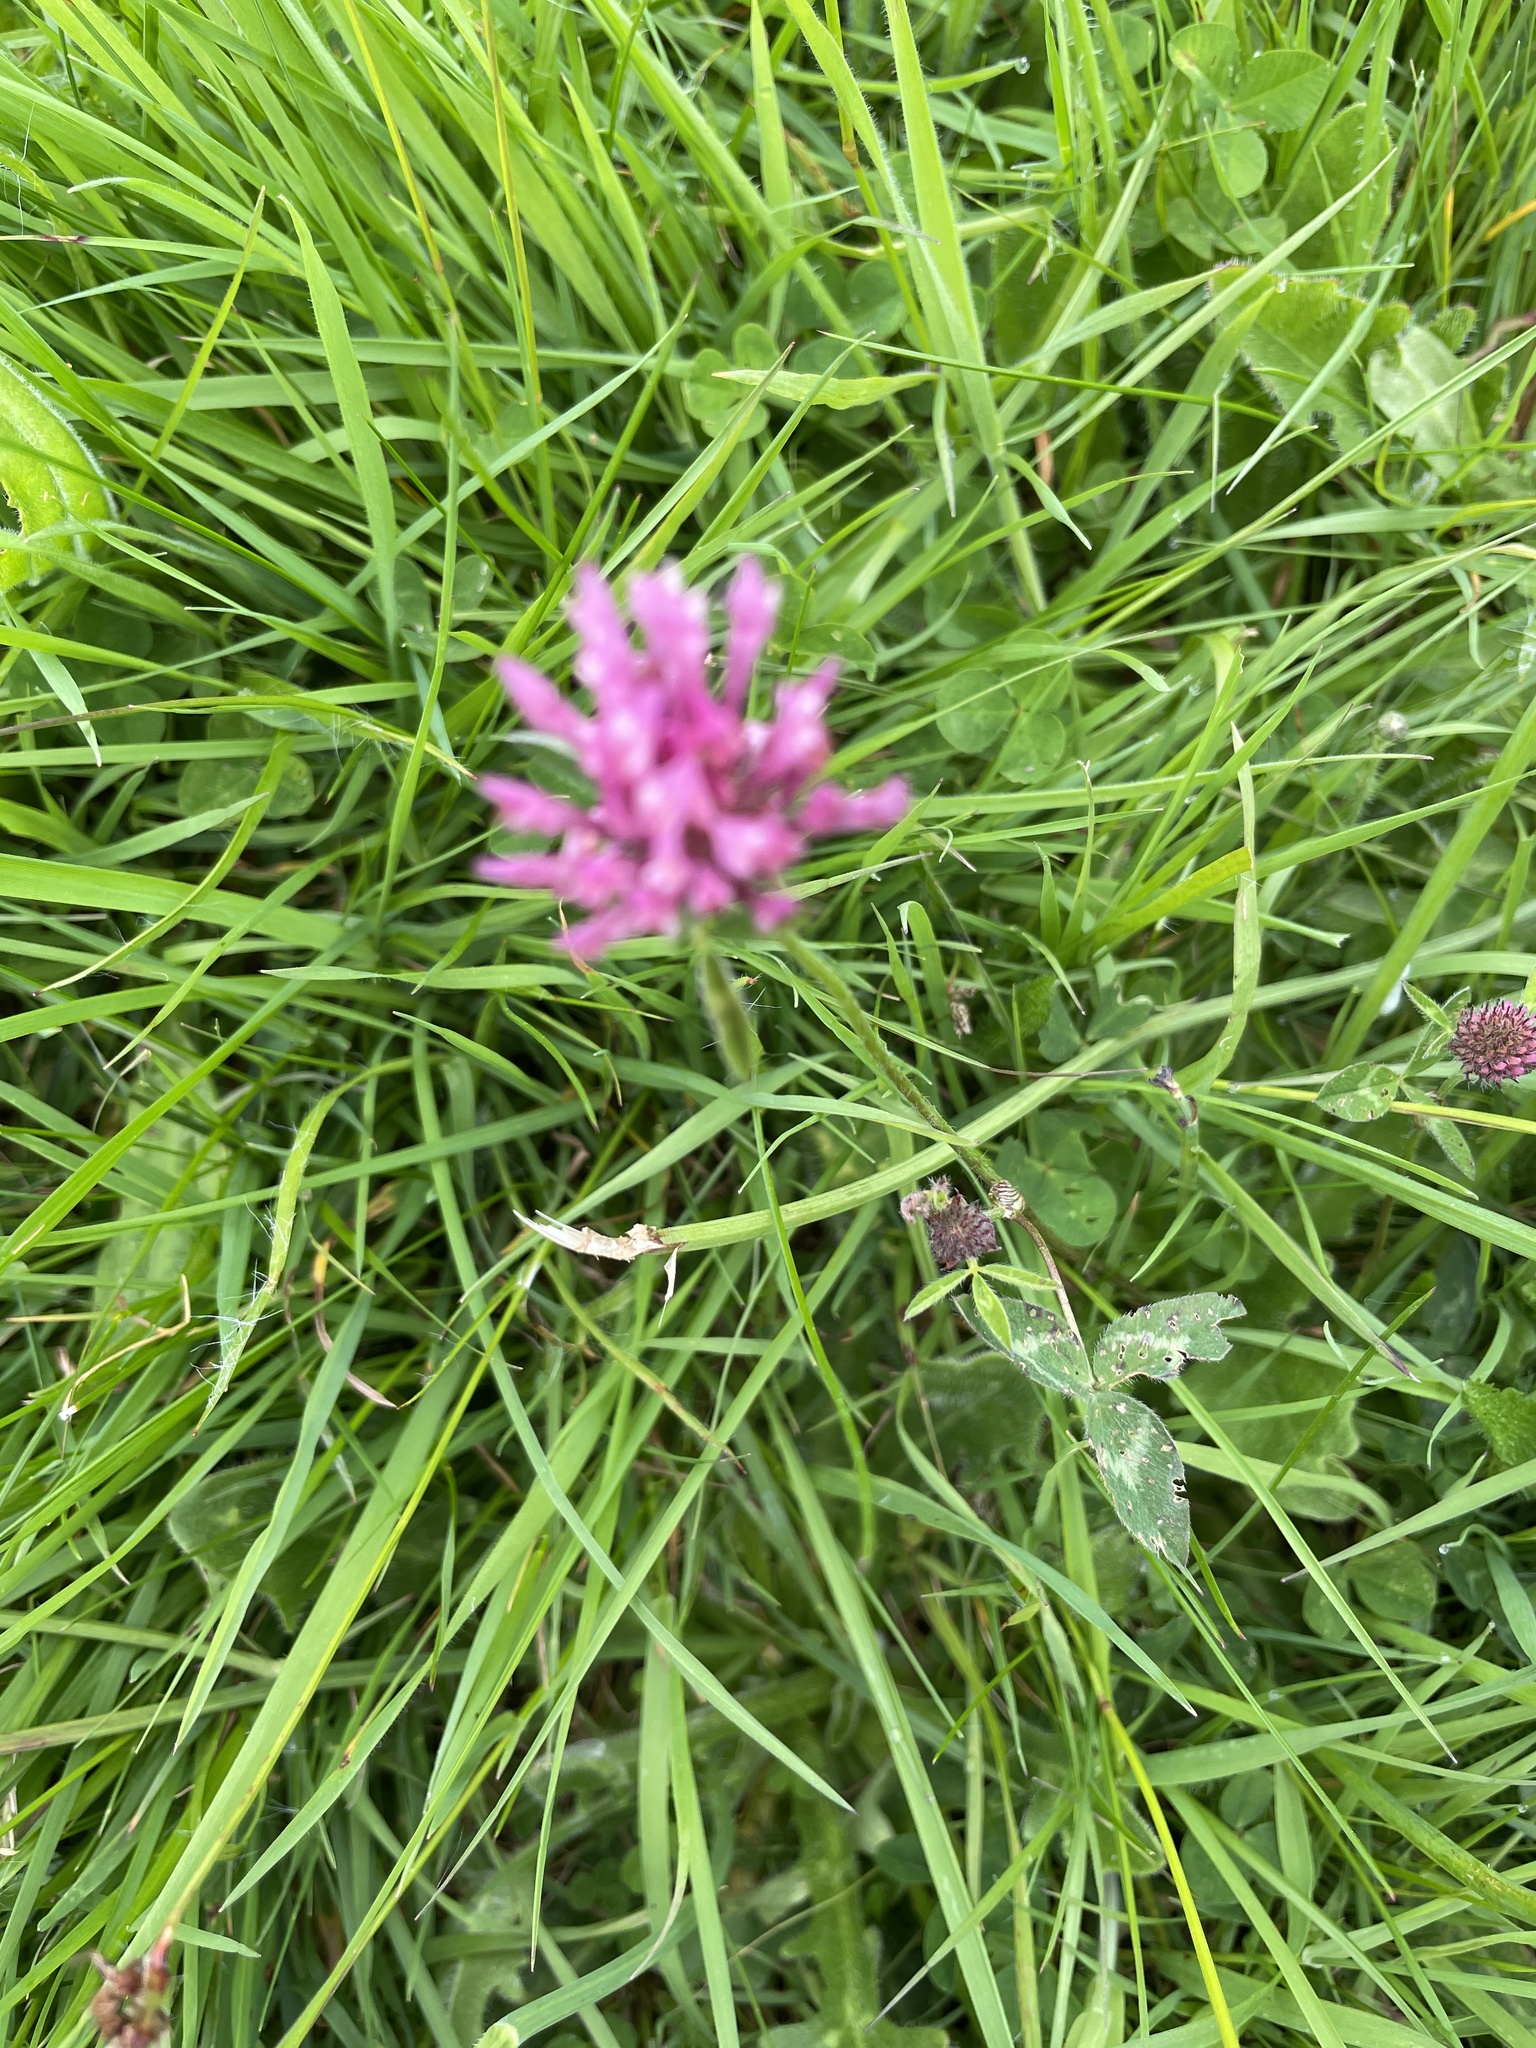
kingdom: Plantae
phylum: Tracheophyta
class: Magnoliopsida
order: Fabales
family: Fabaceae
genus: Trifolium
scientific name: Trifolium pratense
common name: Red clover
